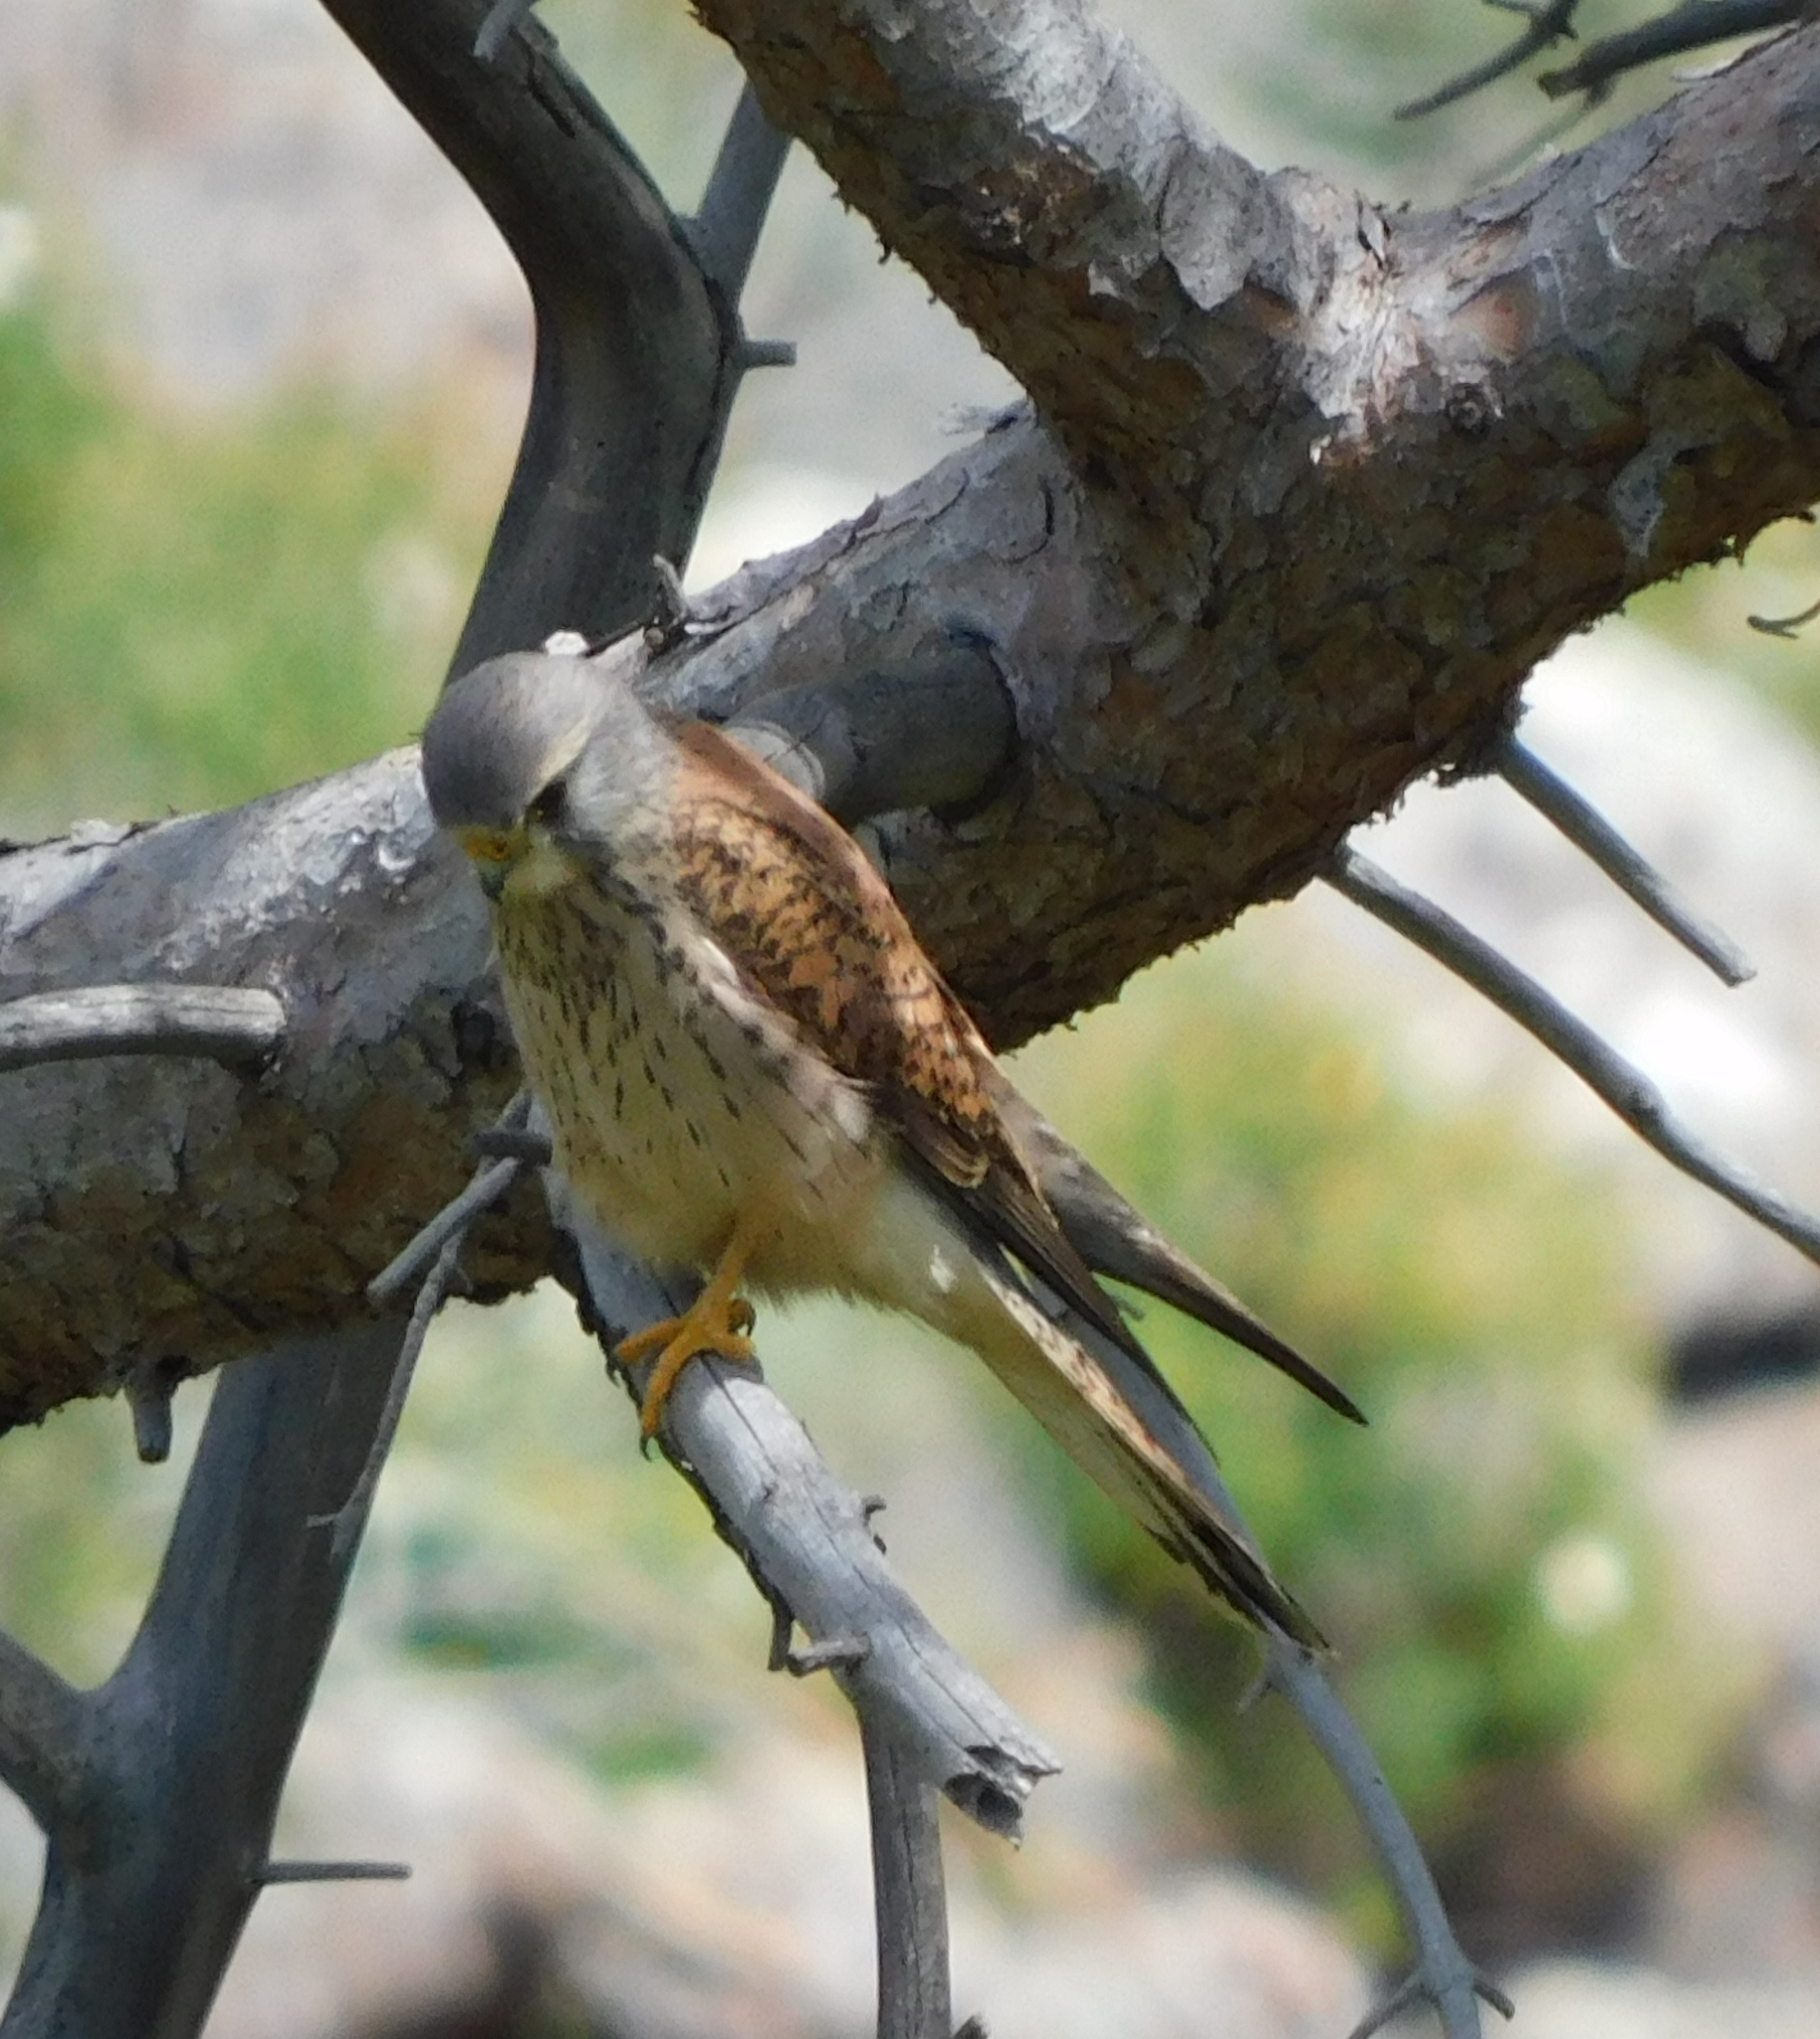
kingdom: Animalia
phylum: Chordata
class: Aves
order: Falconiformes
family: Falconidae
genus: Falco
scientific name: Falco tinnunculus
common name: Common kestrel
